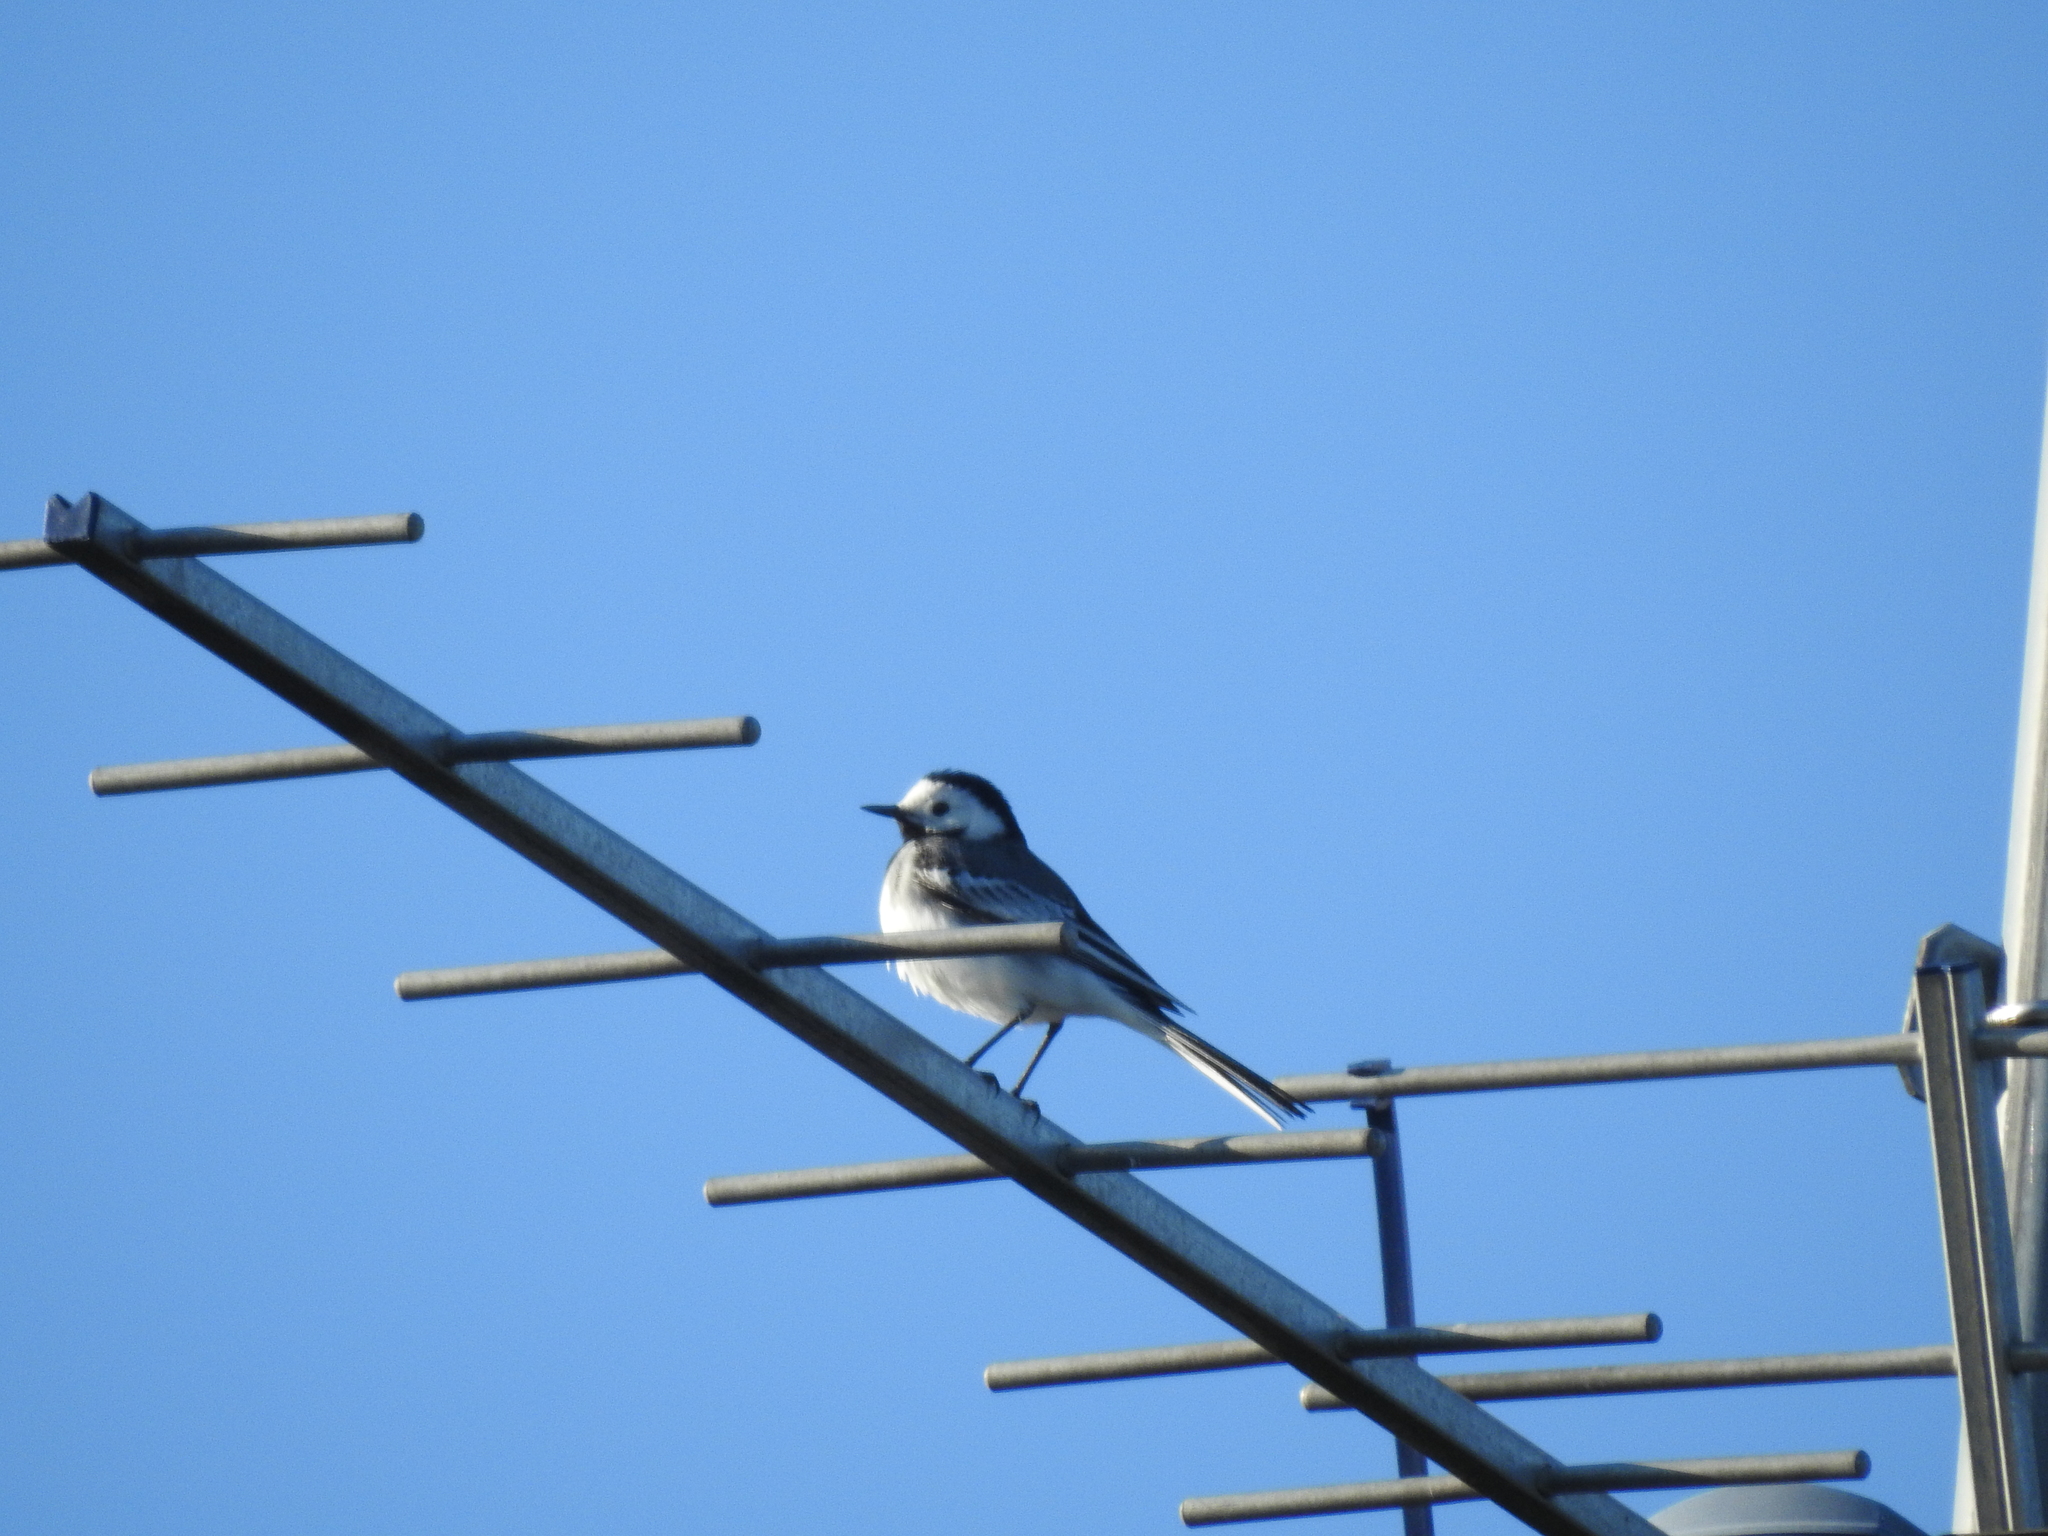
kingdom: Animalia
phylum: Chordata
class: Aves
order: Passeriformes
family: Motacillidae
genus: Motacilla
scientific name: Motacilla alba
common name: White wagtail
